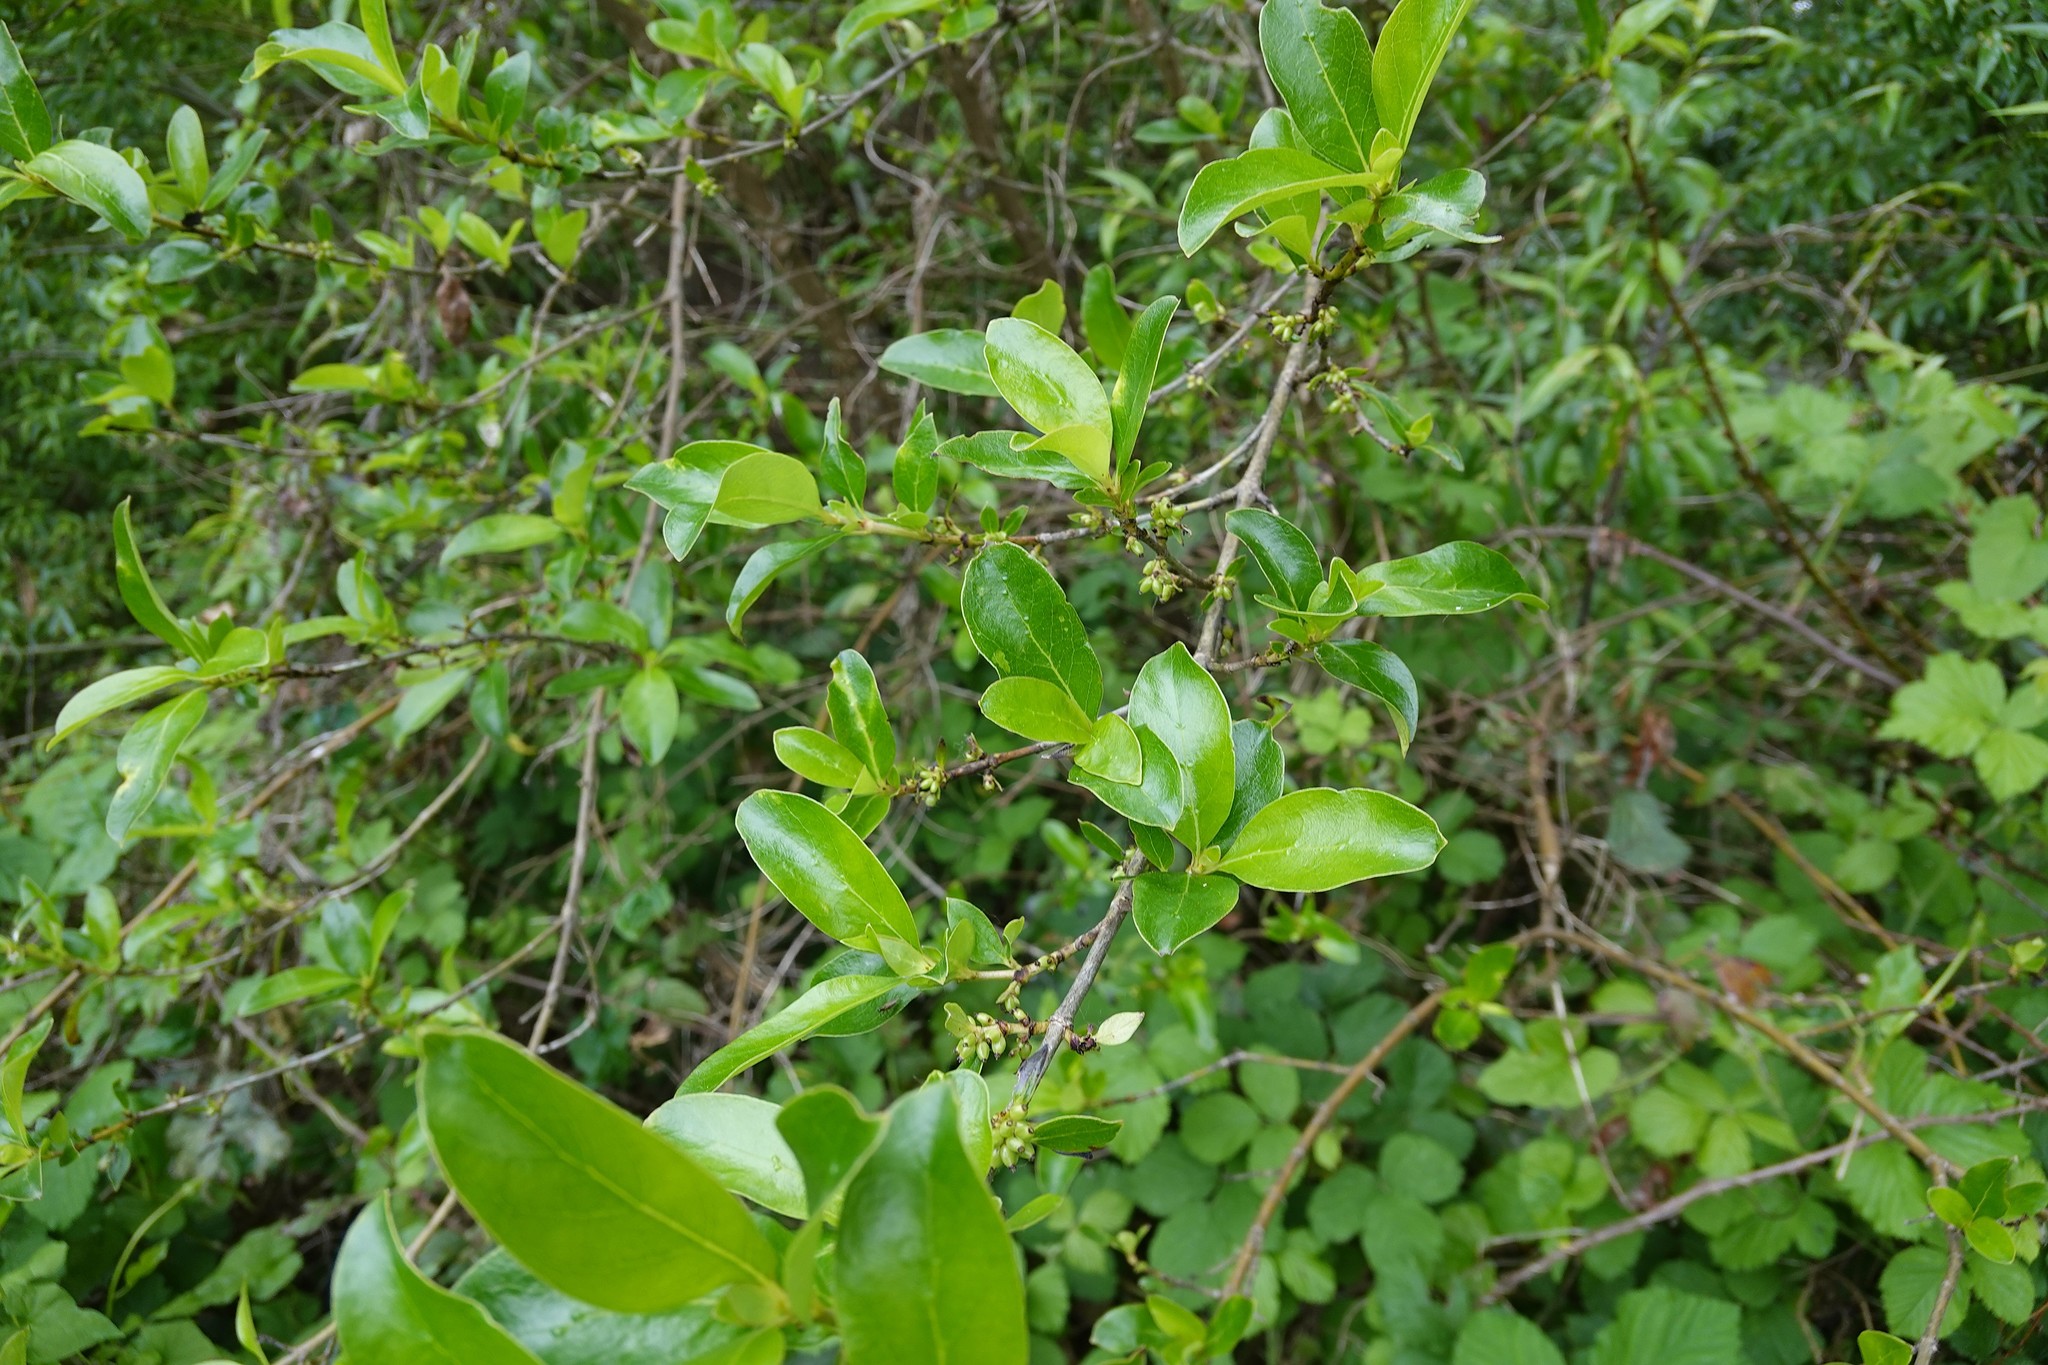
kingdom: Plantae
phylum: Tracheophyta
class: Magnoliopsida
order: Gentianales
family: Rubiaceae
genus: Coprosma
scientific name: Coprosma robusta
